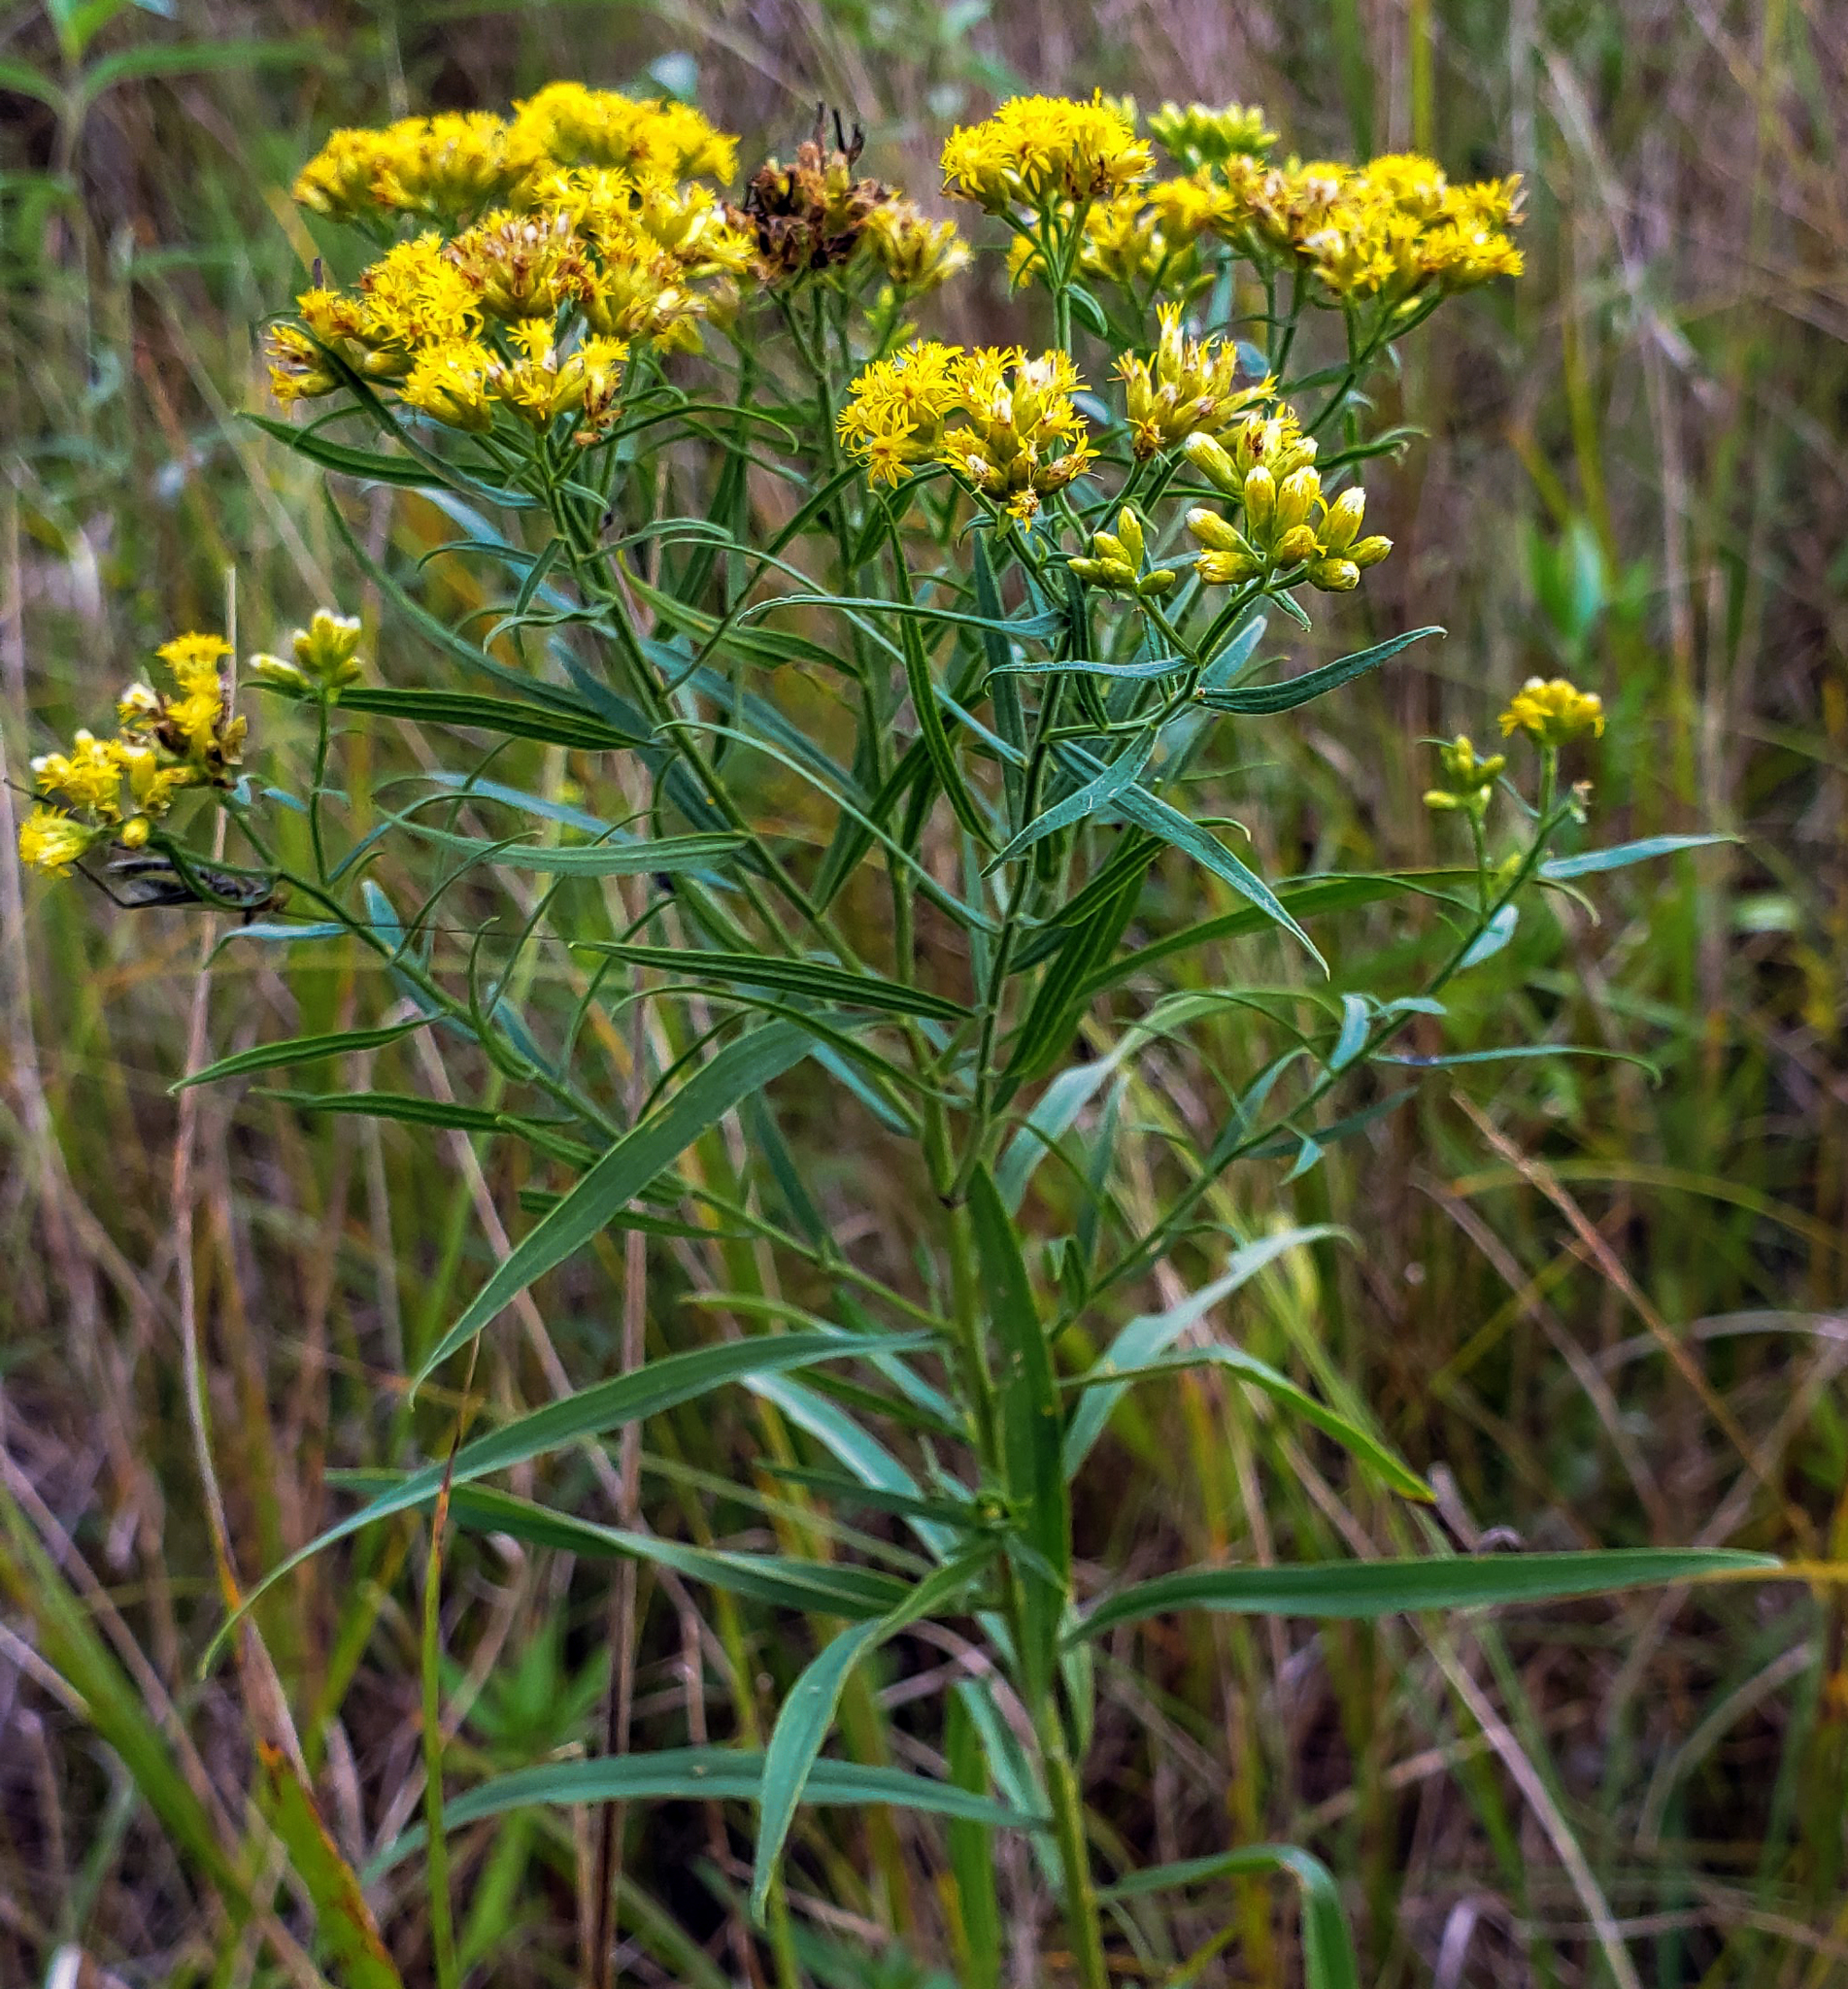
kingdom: Plantae
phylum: Tracheophyta
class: Magnoliopsida
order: Asterales
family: Asteraceae
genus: Euthamia
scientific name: Euthamia graminifolia
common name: Common goldentop
